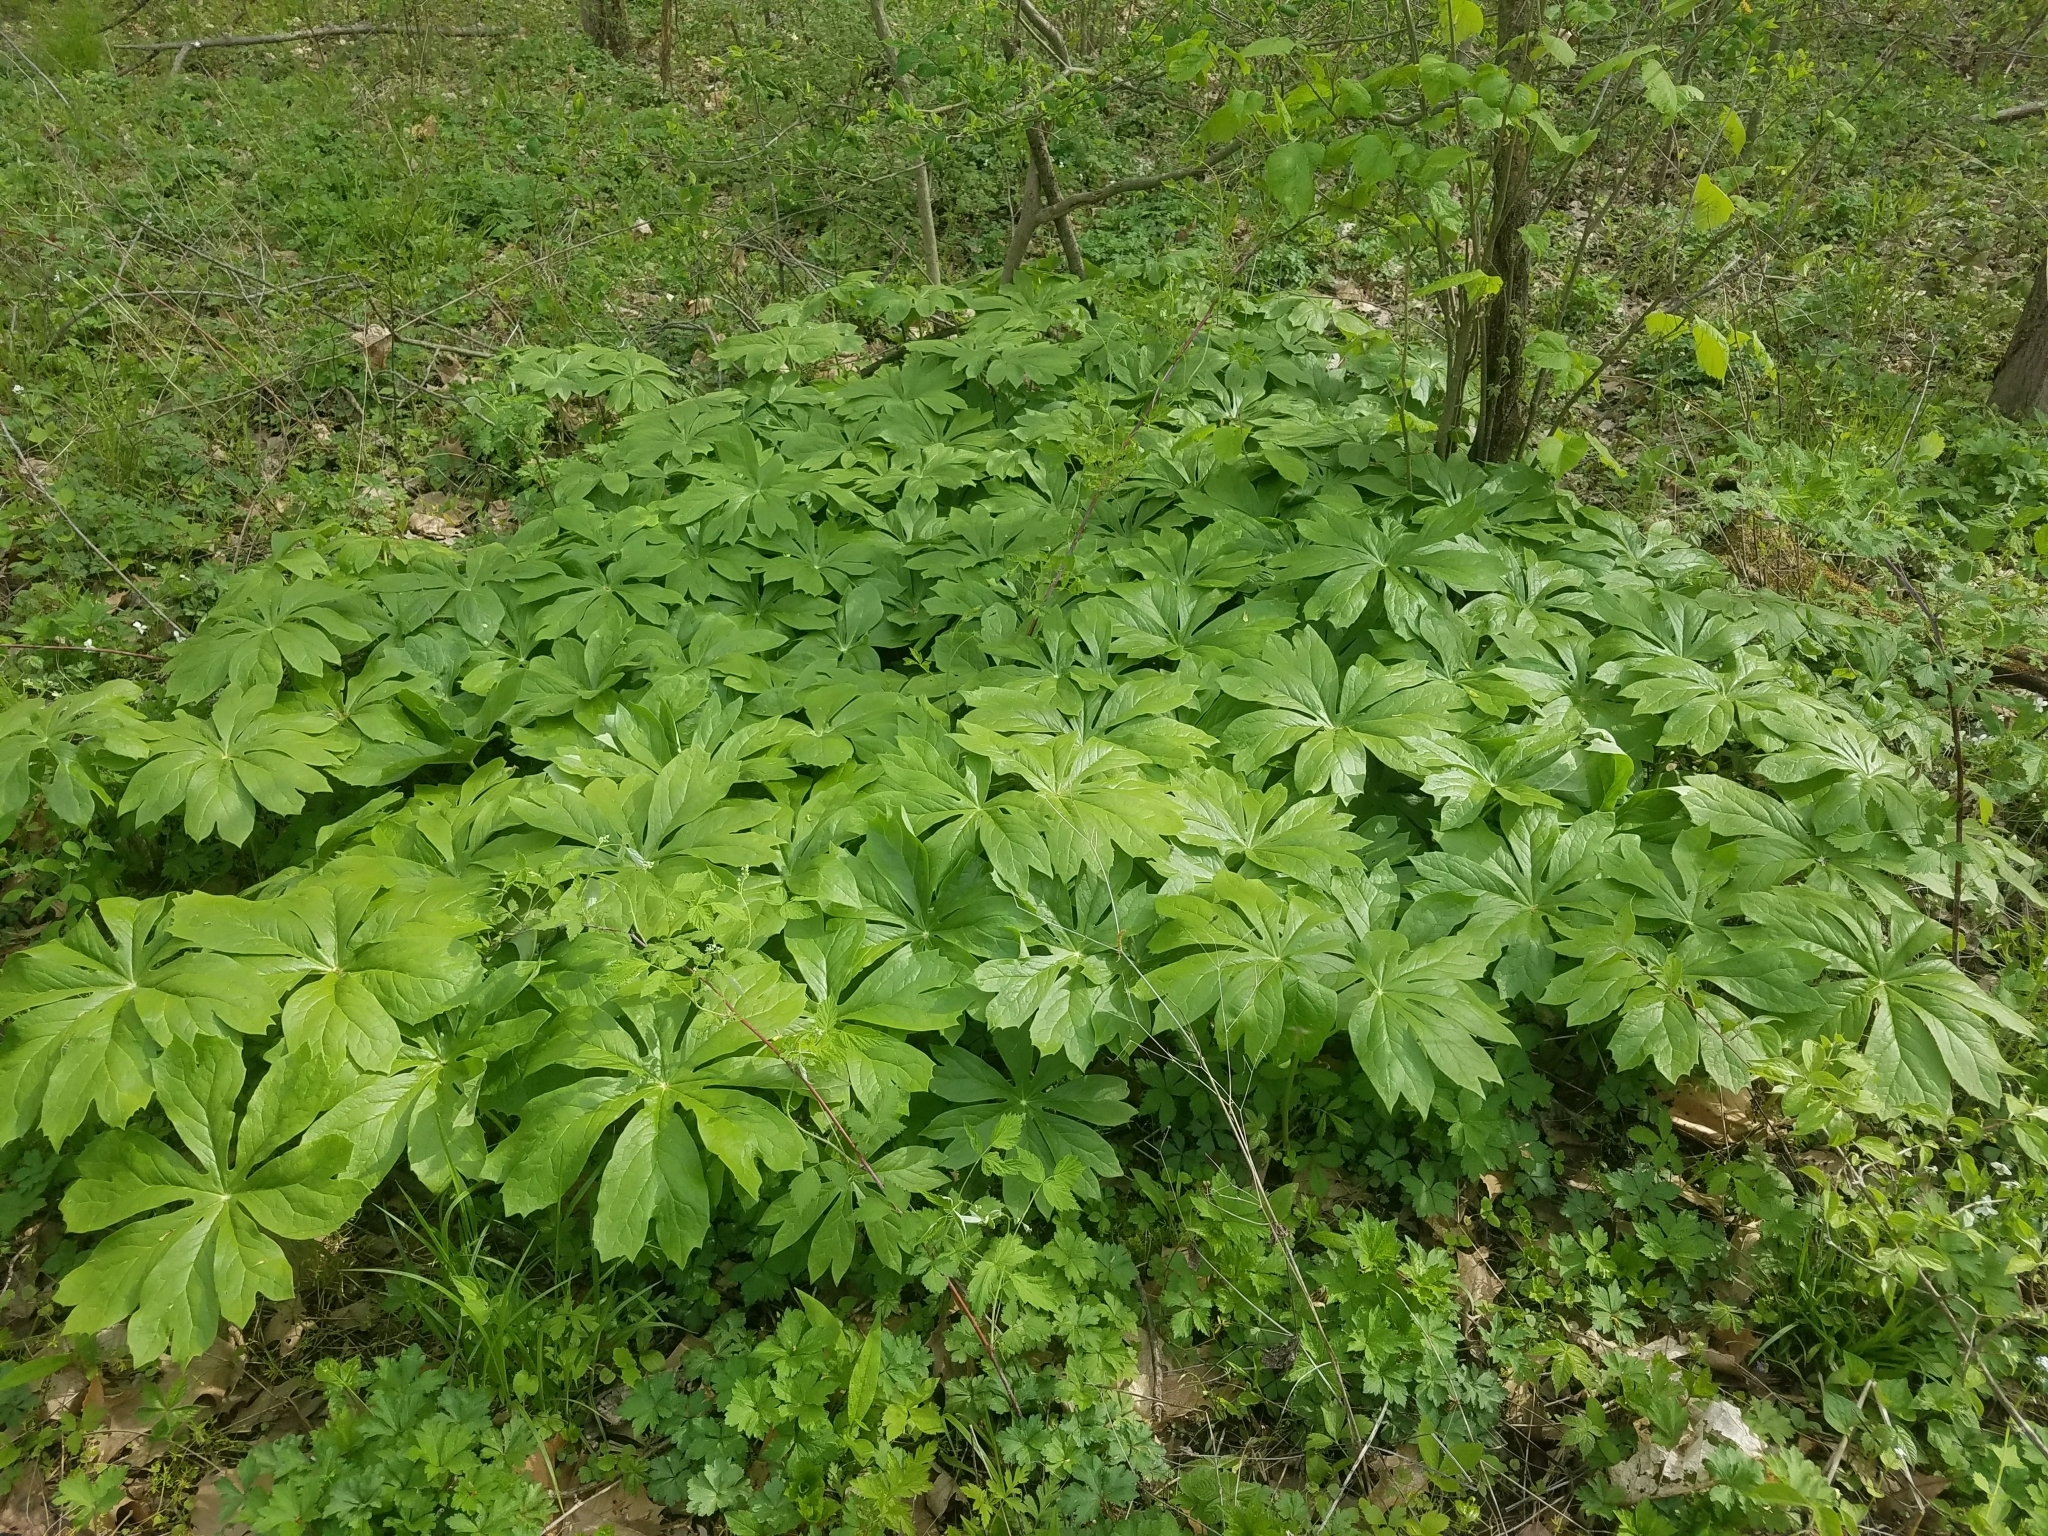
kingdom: Plantae
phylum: Tracheophyta
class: Magnoliopsida
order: Ranunculales
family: Berberidaceae
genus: Podophyllum
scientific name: Podophyllum peltatum
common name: Wild mandrake
